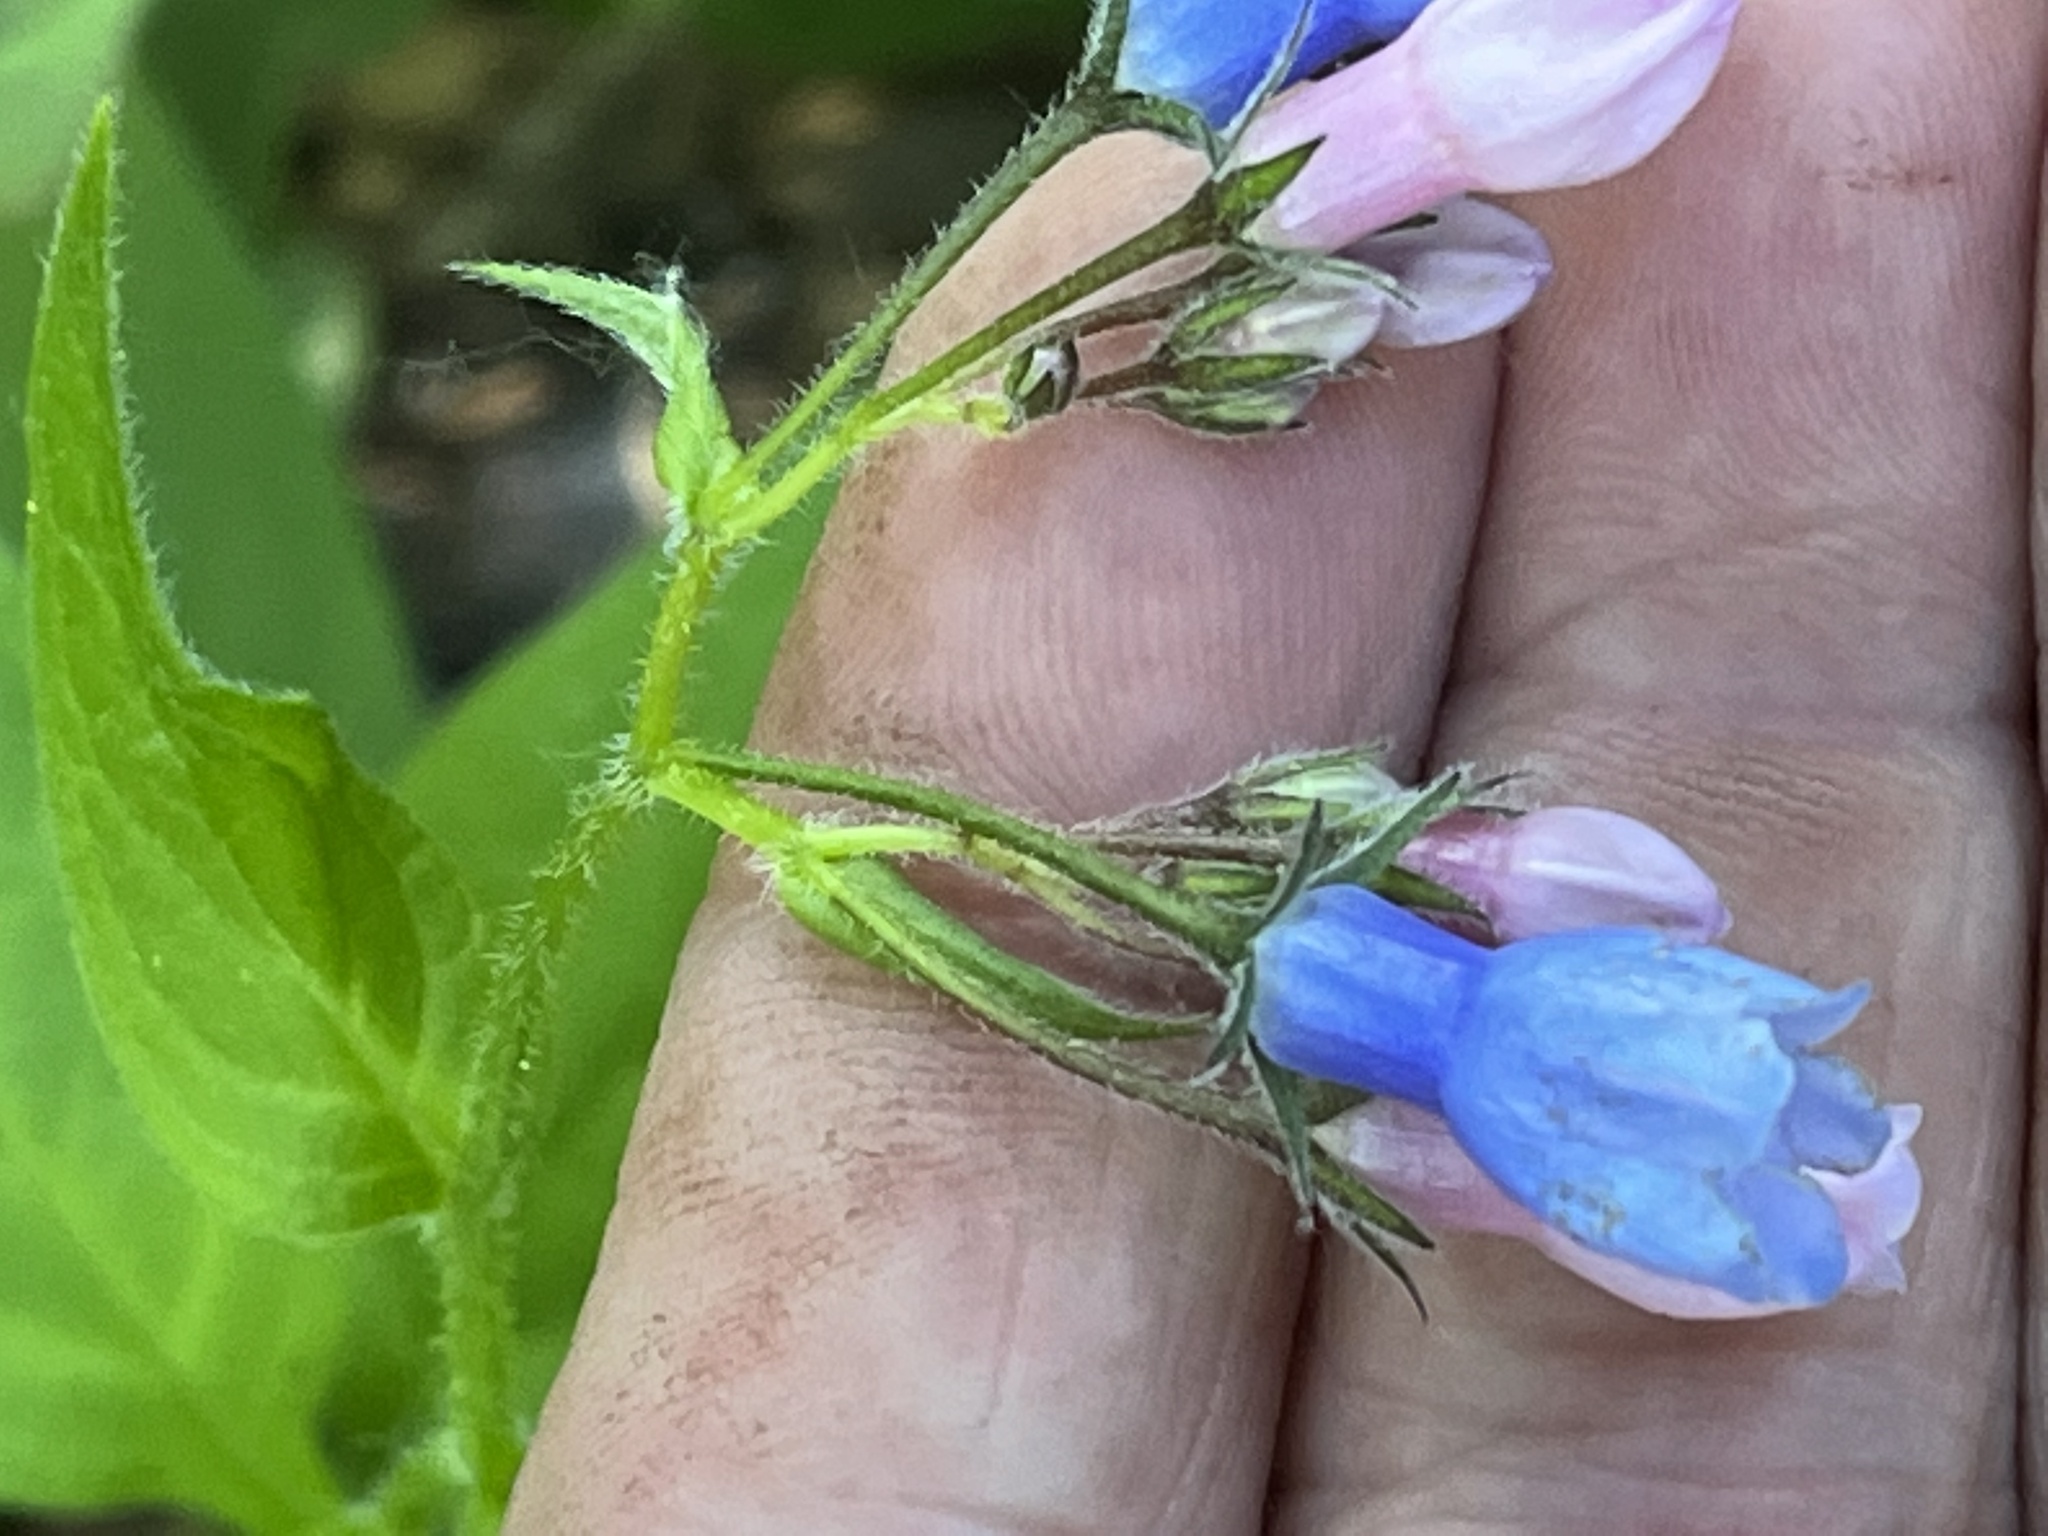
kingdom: Plantae
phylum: Tracheophyta
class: Magnoliopsida
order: Boraginales
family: Boraginaceae
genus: Mertensia
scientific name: Mertensia paniculata
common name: Panicled bluebells
